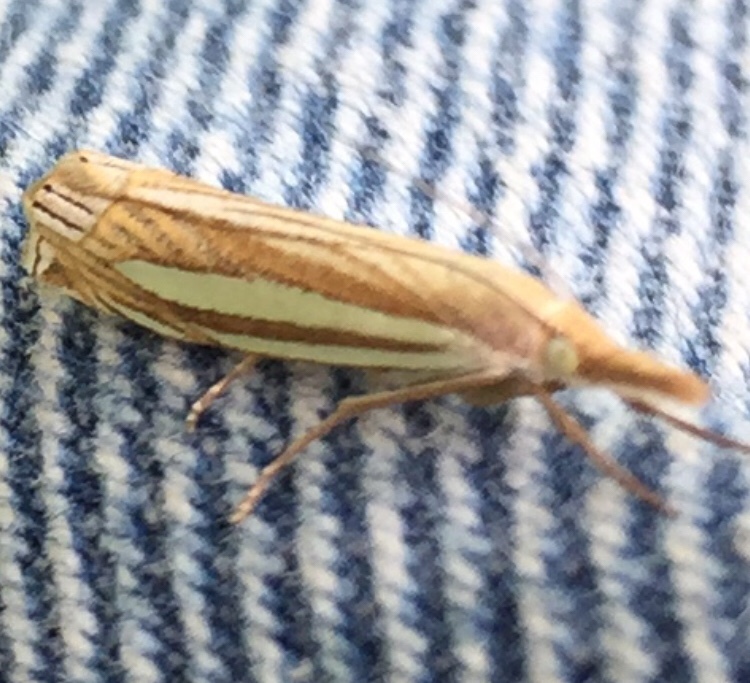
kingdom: Animalia
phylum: Arthropoda
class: Insecta
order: Lepidoptera
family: Crambidae
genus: Crambus
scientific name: Crambus laqueatellus
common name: Eastern grass-veneer
